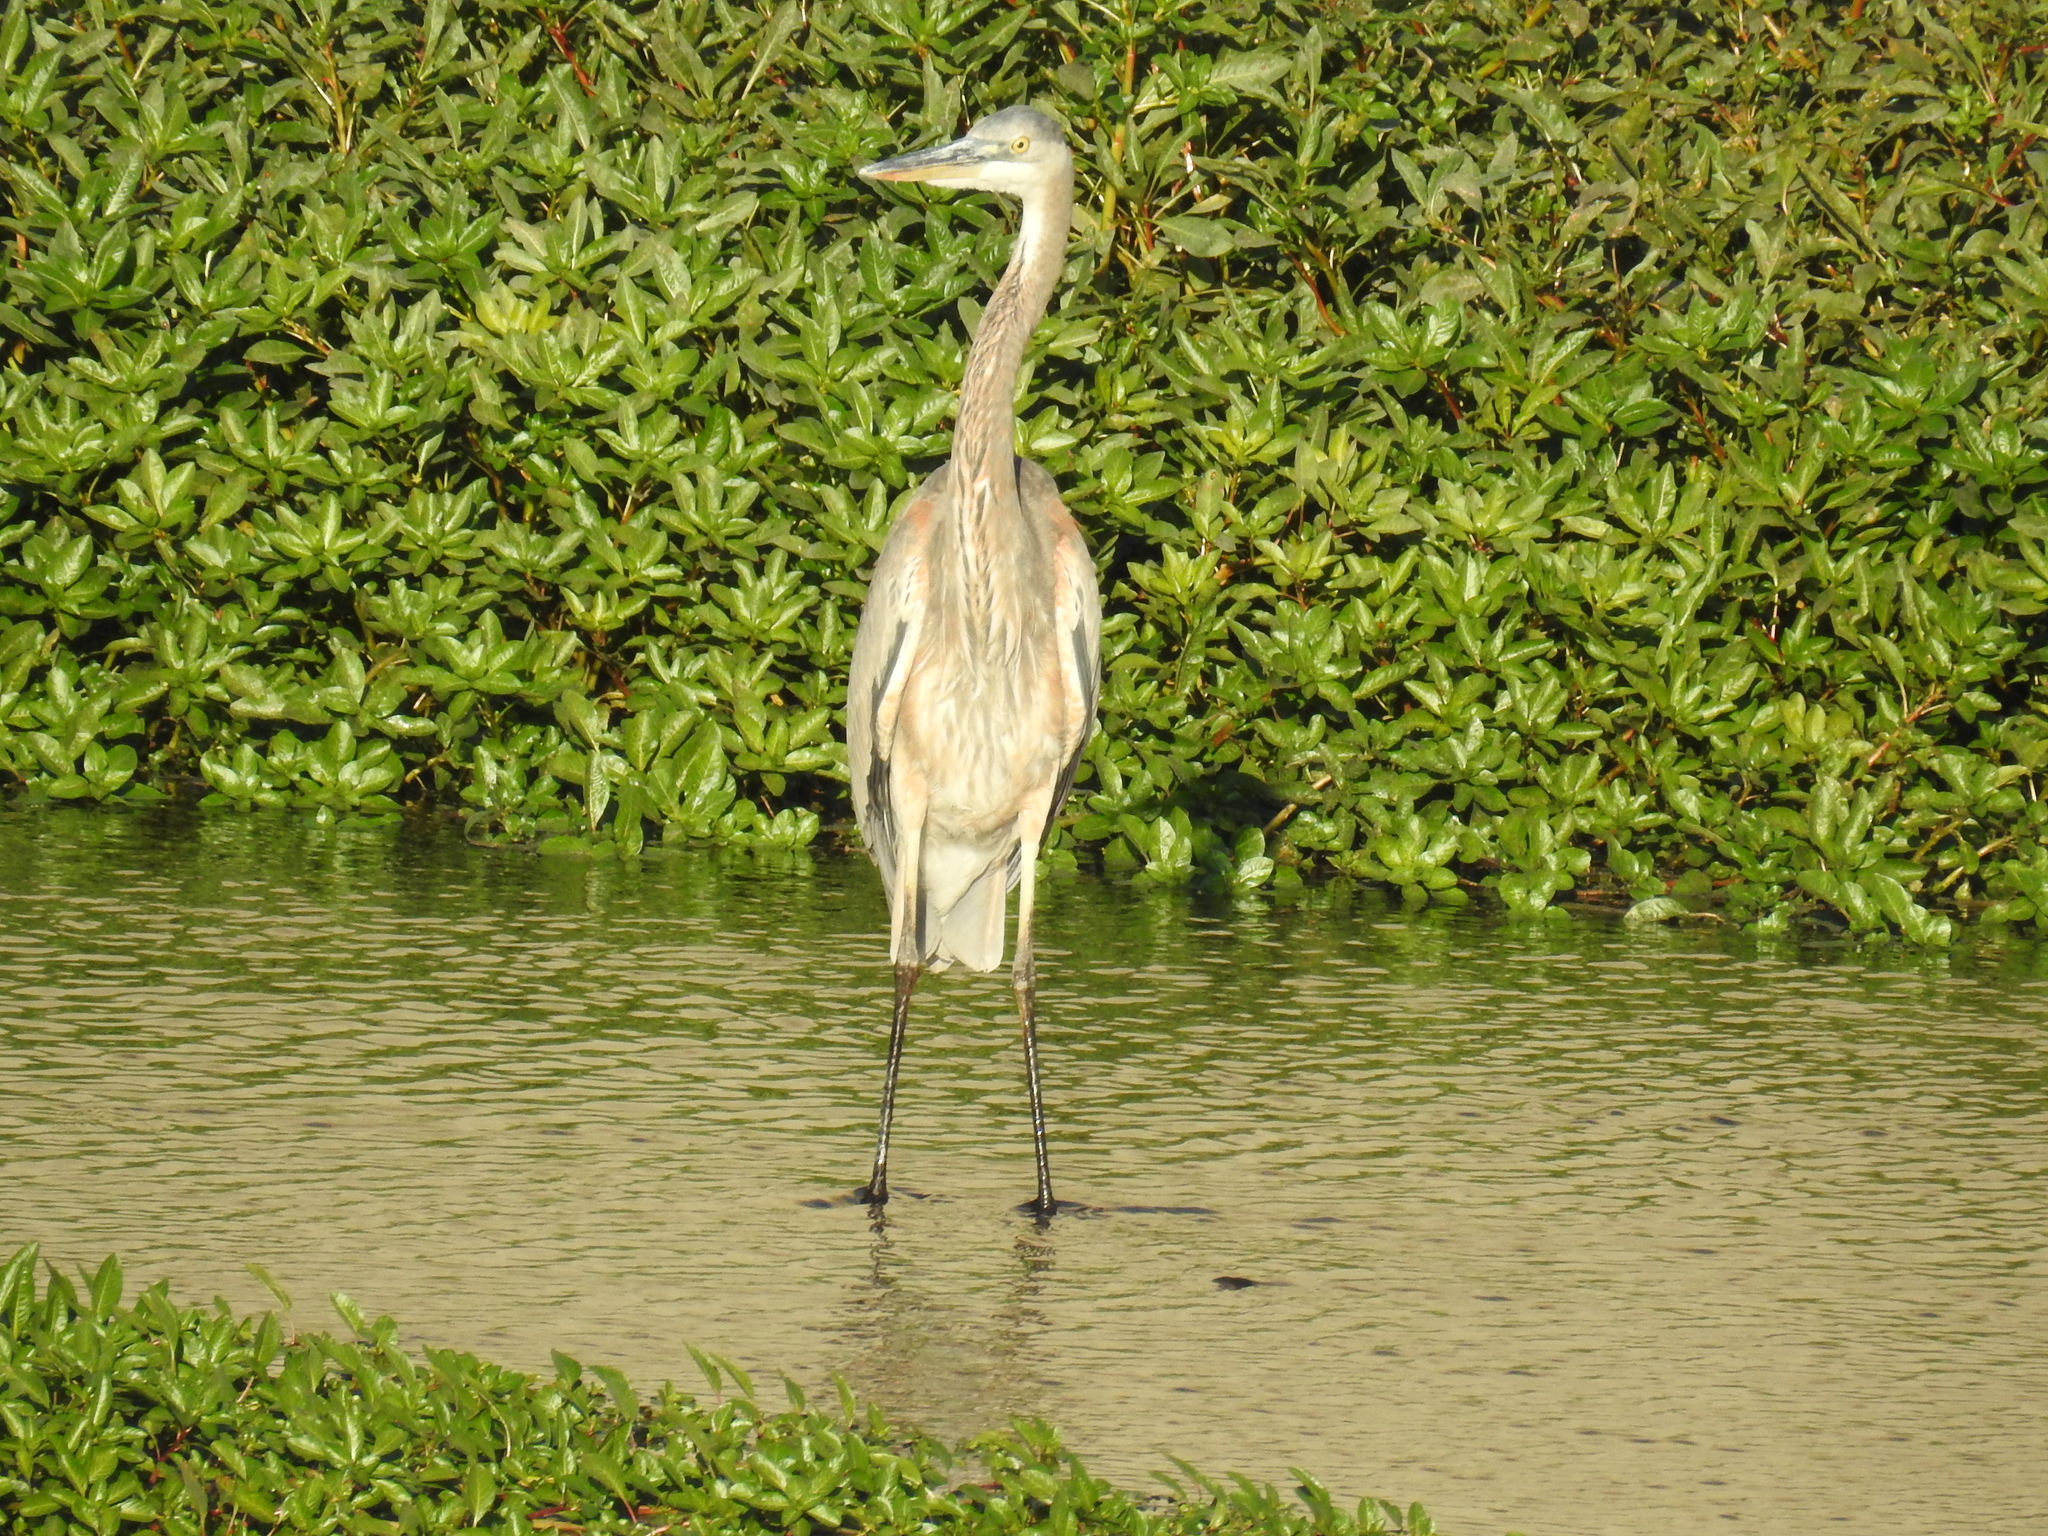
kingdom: Animalia
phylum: Chordata
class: Aves
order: Pelecaniformes
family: Ardeidae
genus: Ardea
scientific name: Ardea herodias
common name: Great blue heron
